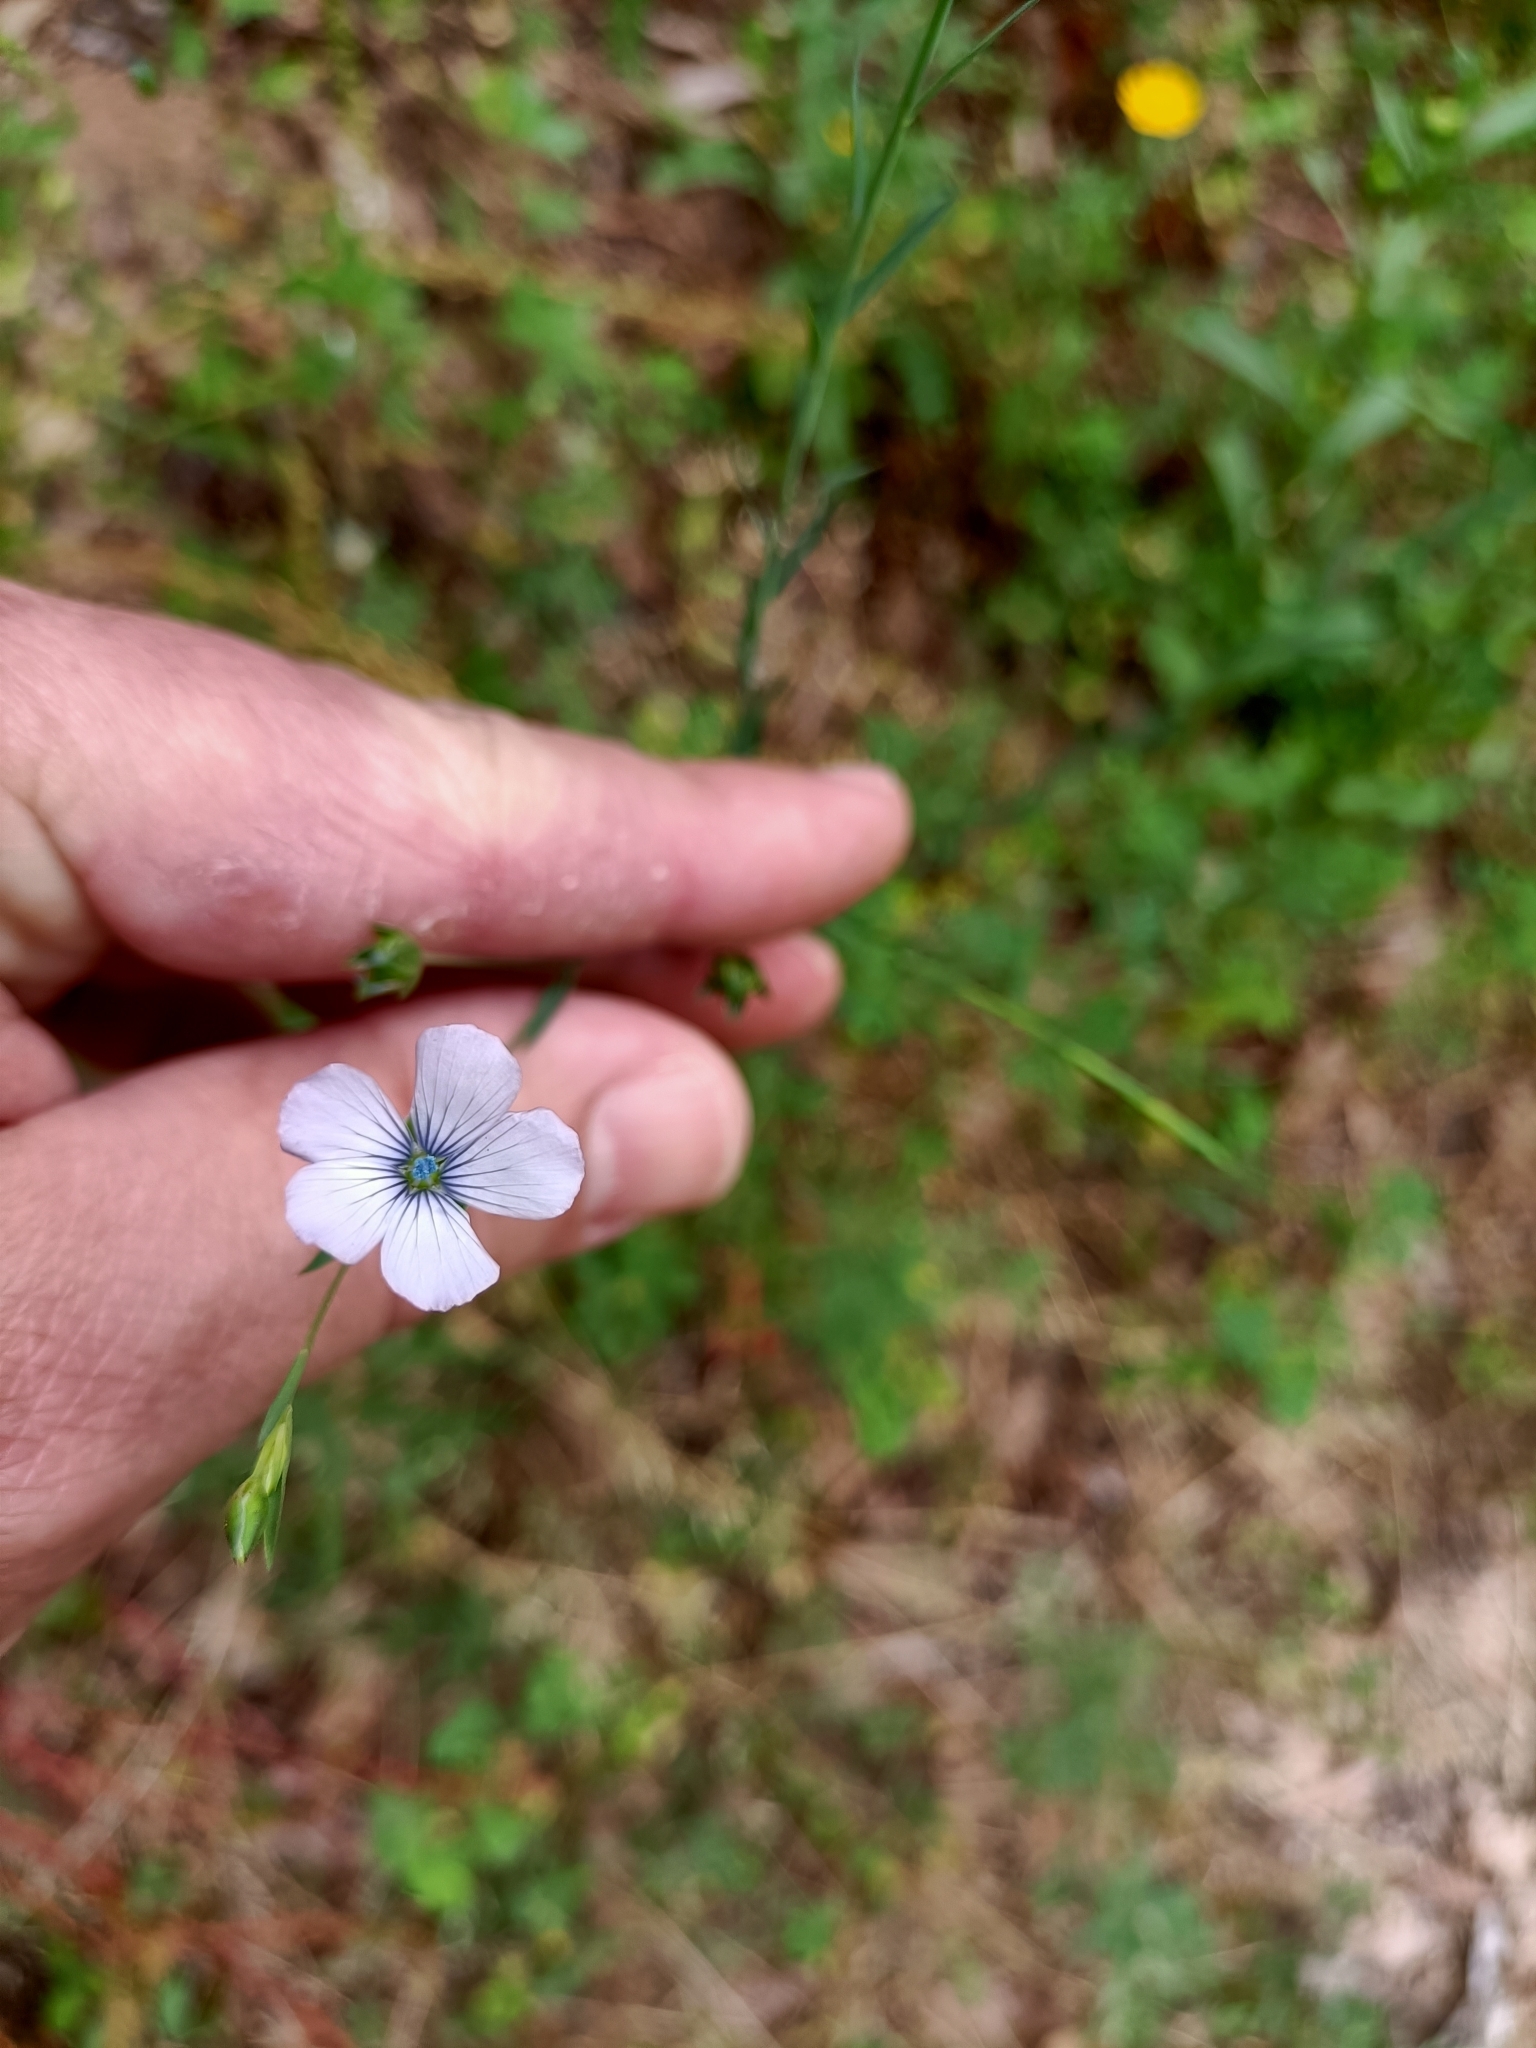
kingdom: Plantae
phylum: Tracheophyta
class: Magnoliopsida
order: Malpighiales
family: Linaceae
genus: Linum
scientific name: Linum bienne
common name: Pale flax
